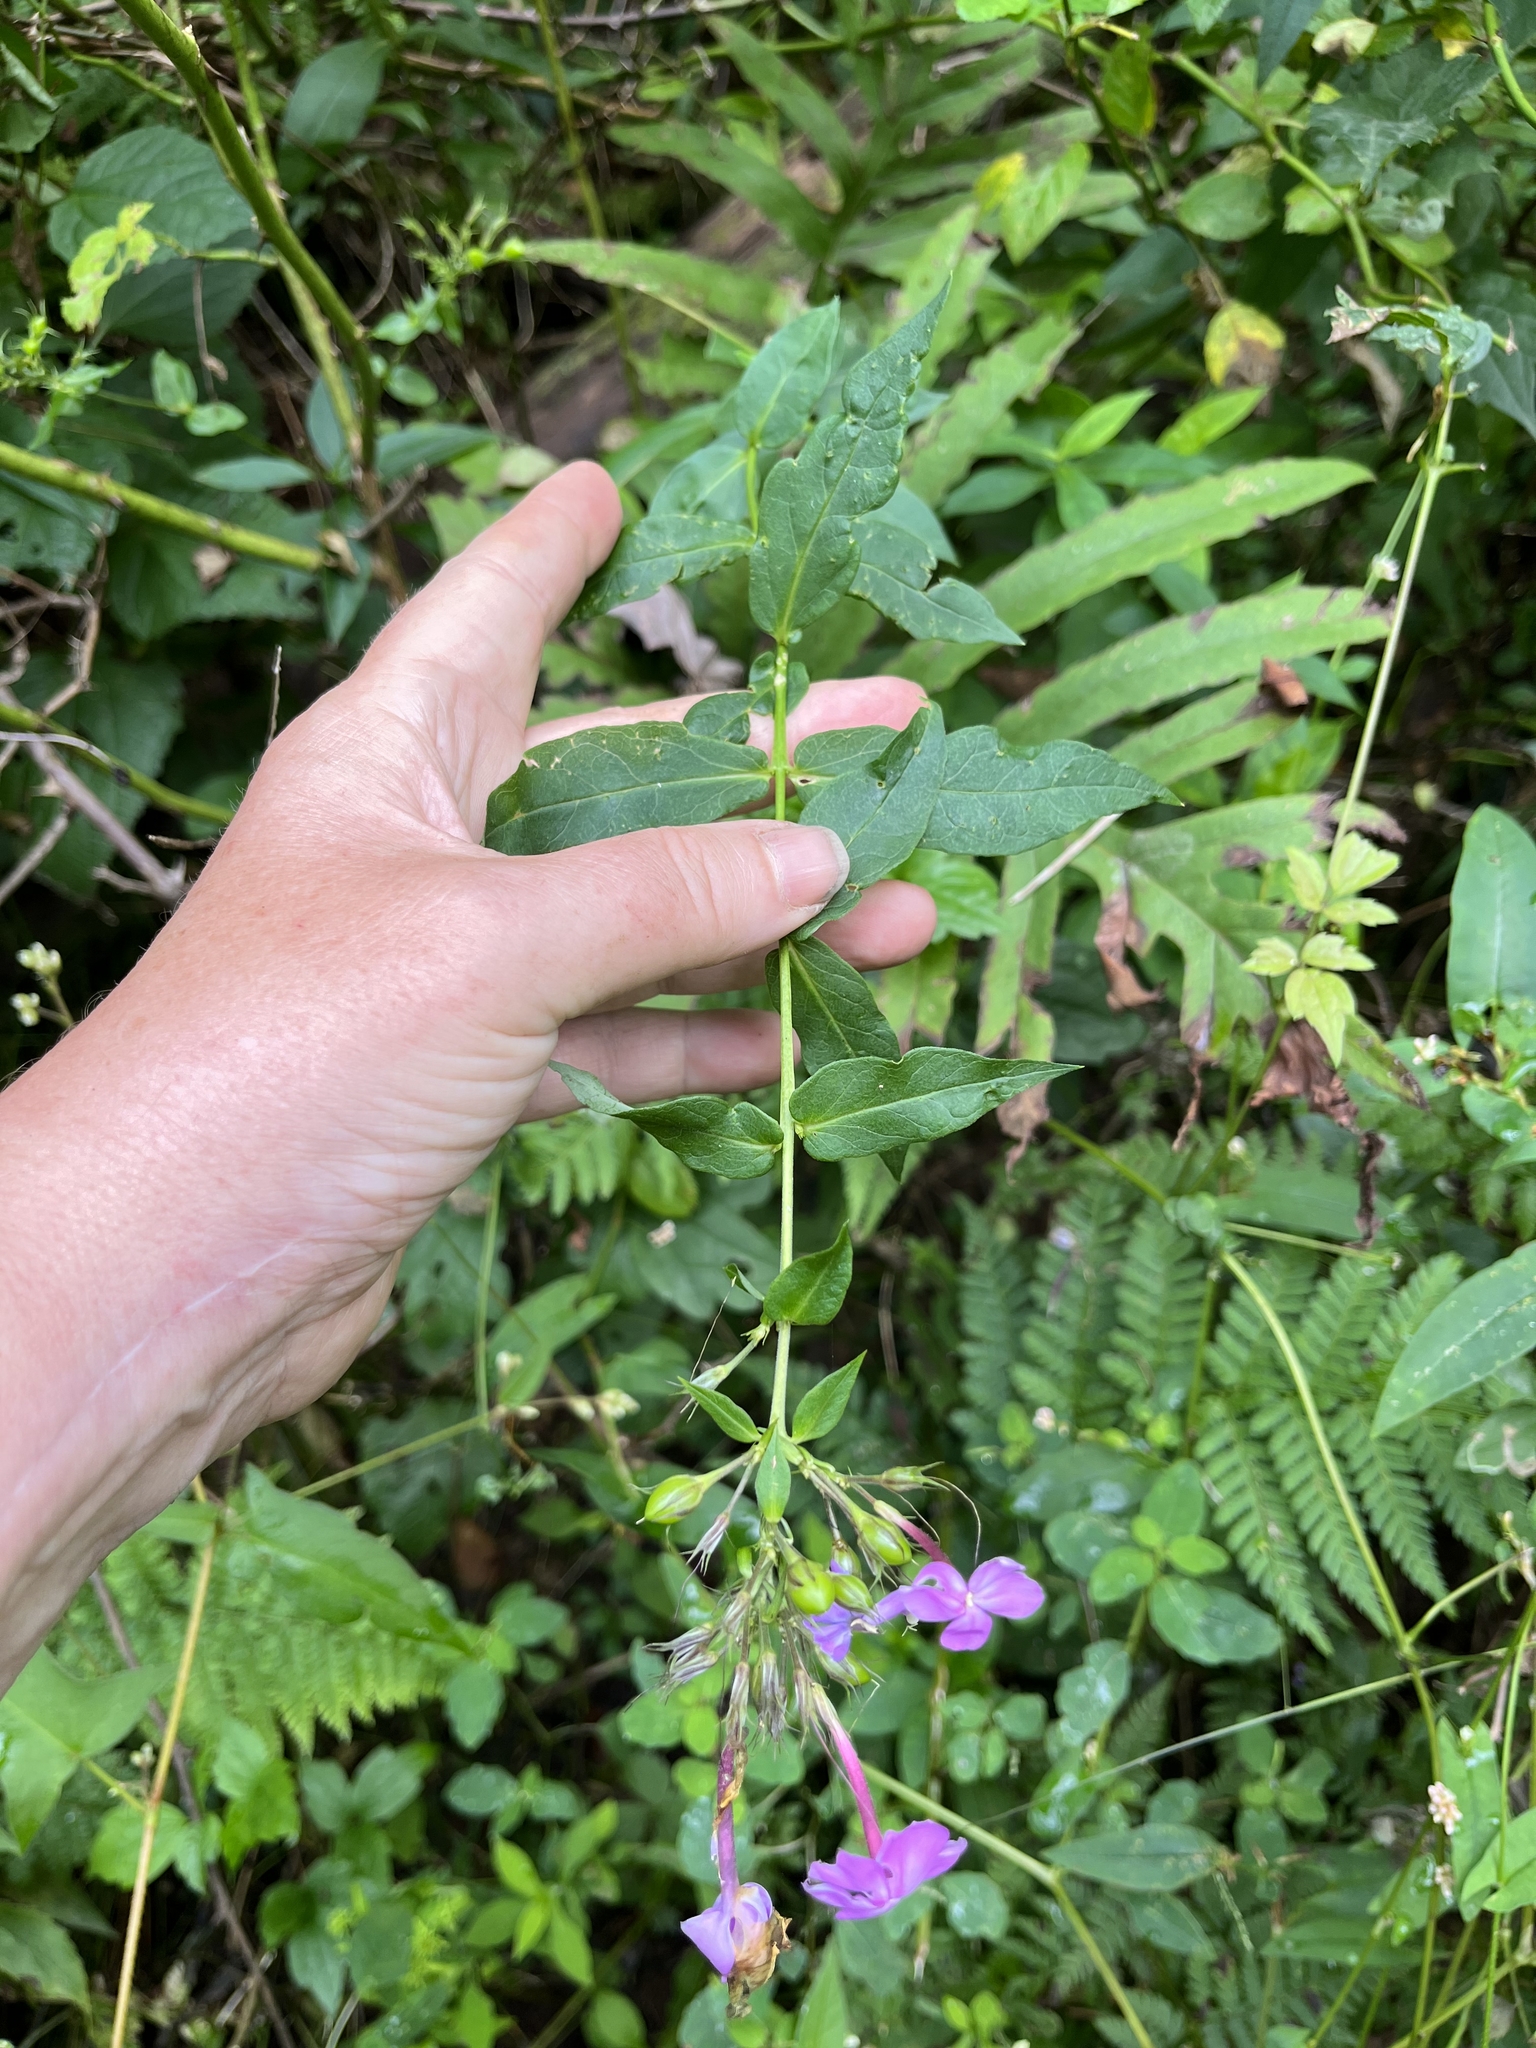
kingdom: Plantae
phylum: Tracheophyta
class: Magnoliopsida
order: Ericales
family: Polemoniaceae
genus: Phlox
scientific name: Phlox paniculata
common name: Fall phlox
